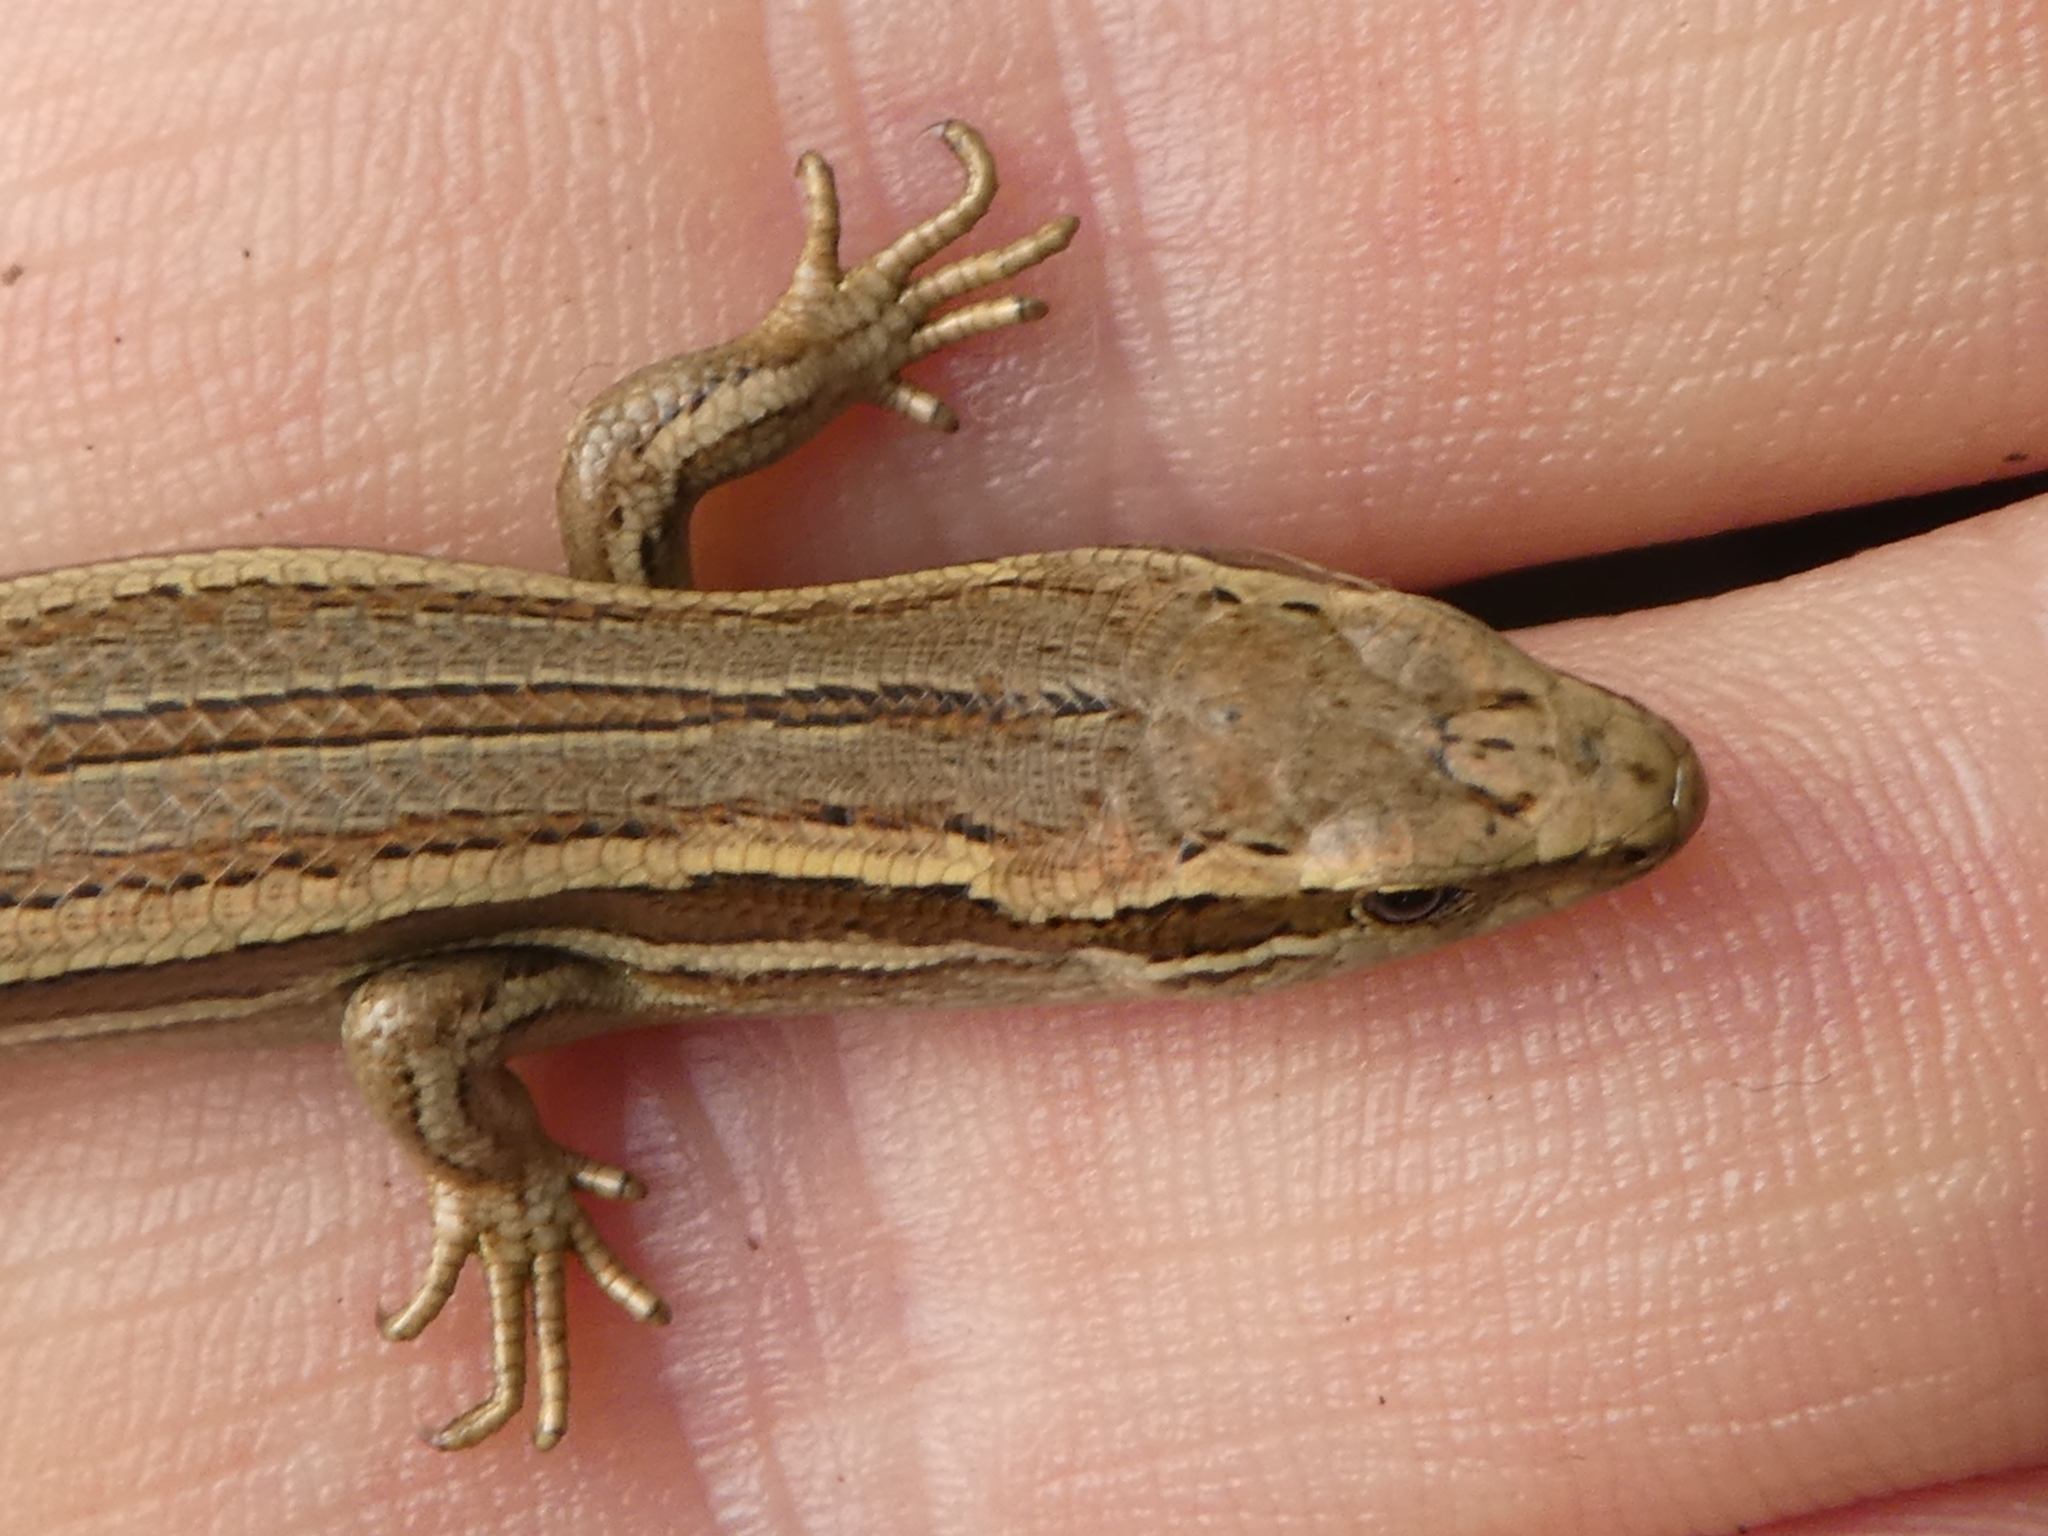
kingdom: Animalia
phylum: Chordata
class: Squamata
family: Scincidae
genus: Oligosoma
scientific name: Oligosoma polychroma
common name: Common new zealand skink
